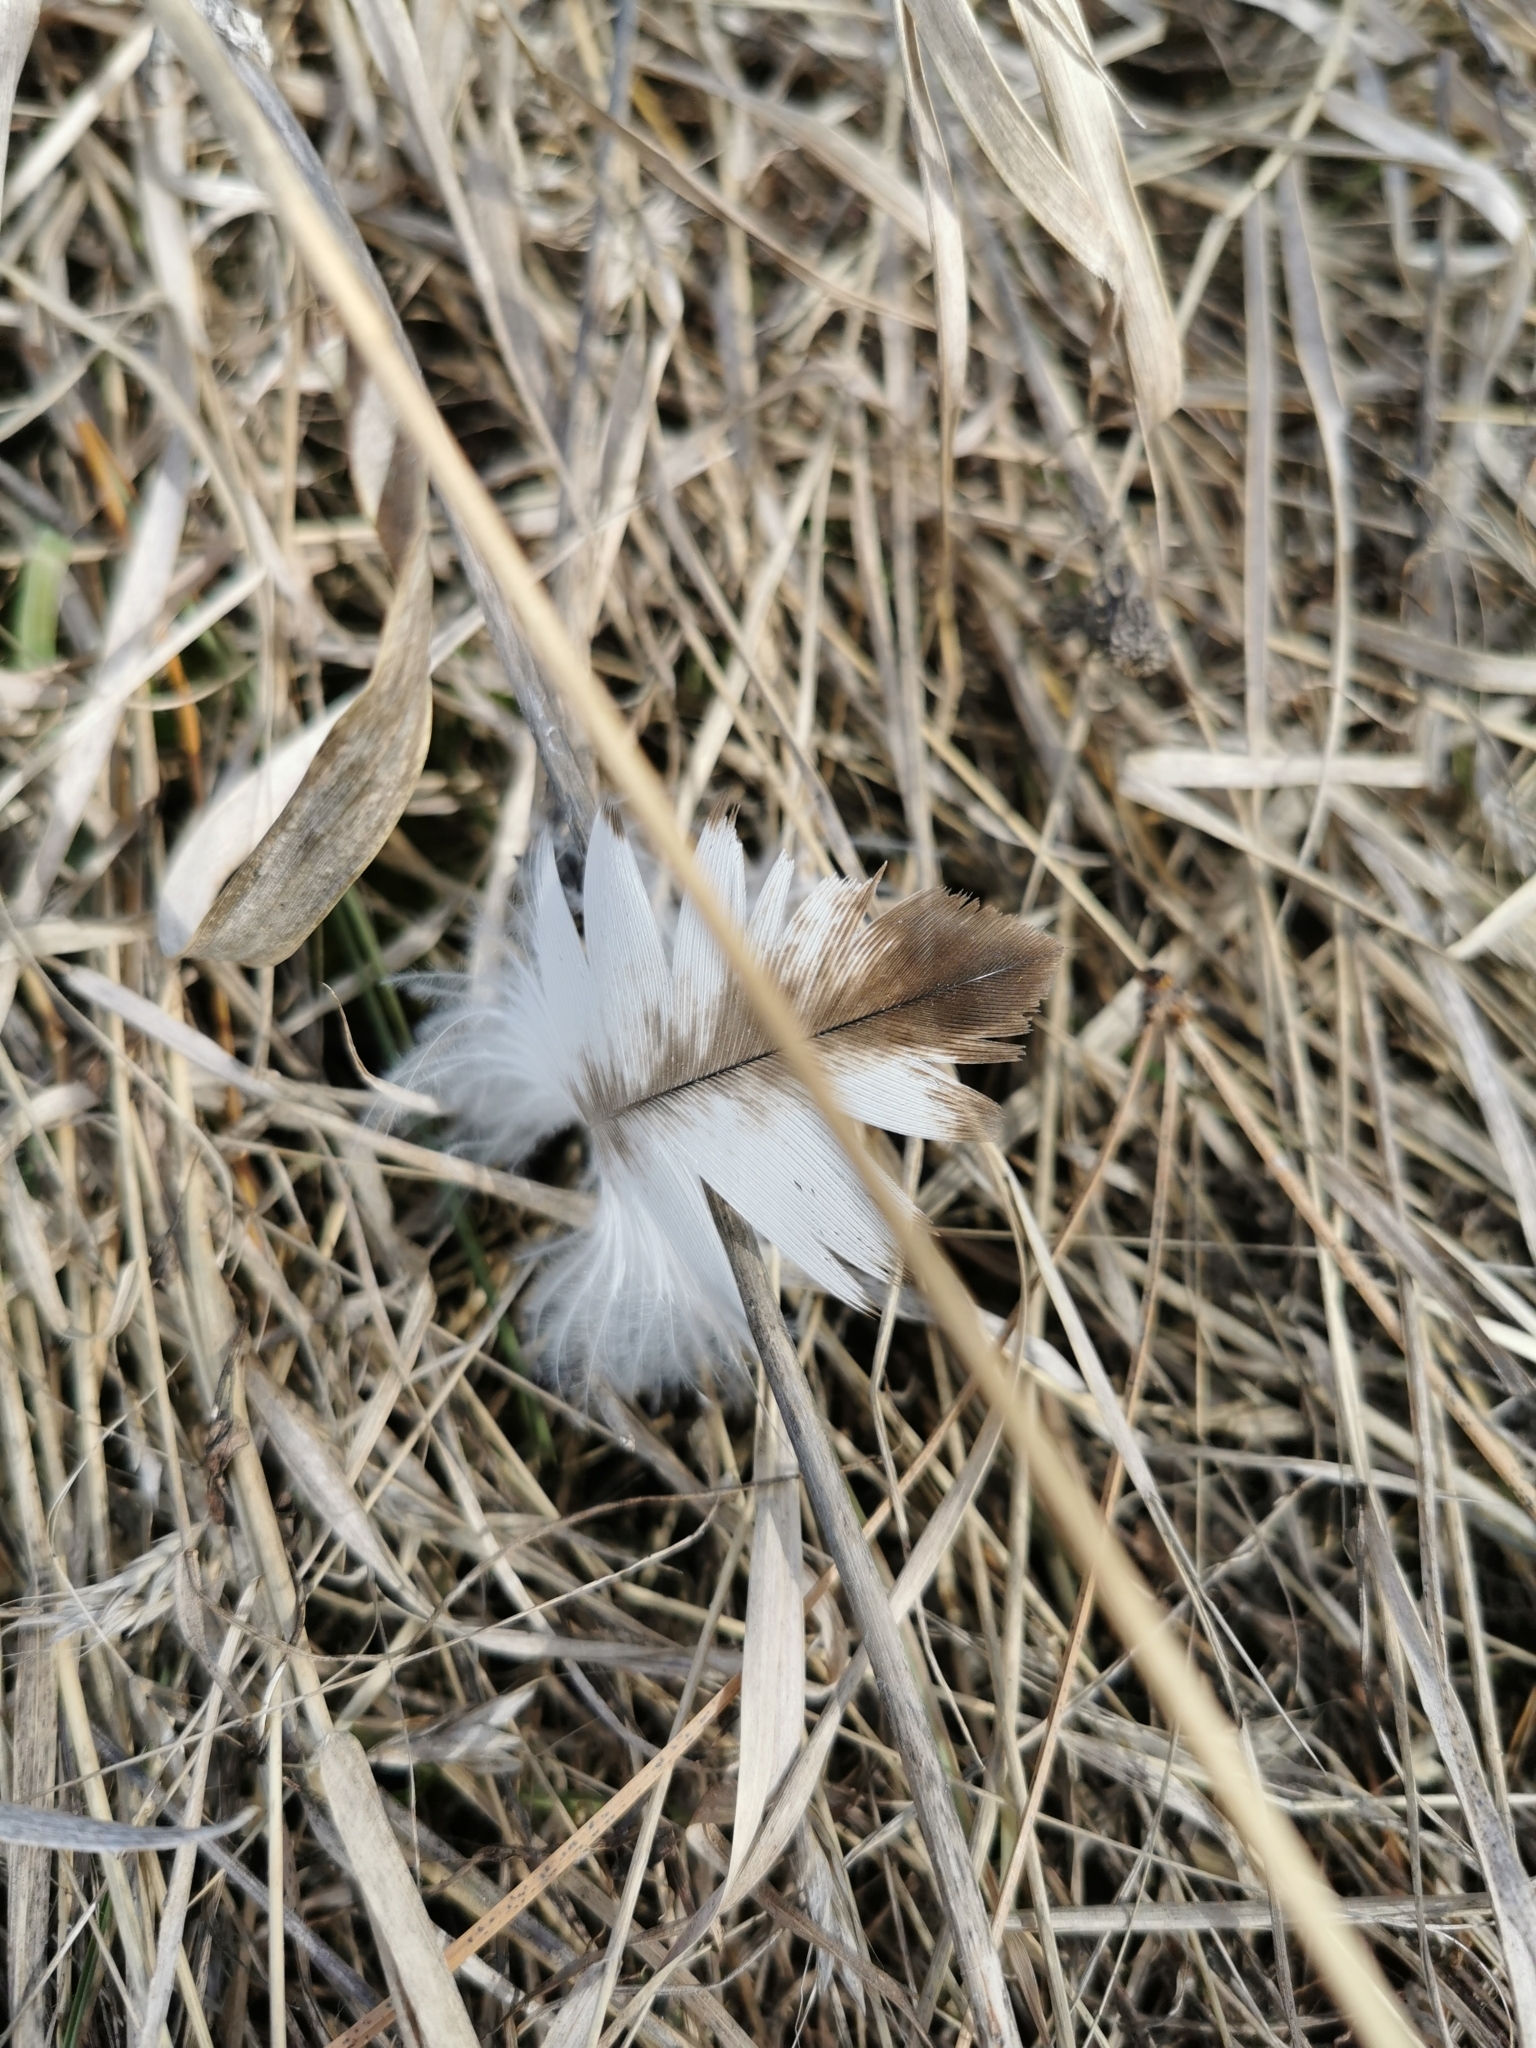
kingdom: Animalia
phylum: Chordata
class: Aves
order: Accipitriformes
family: Accipitridae
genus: Haliaeetus
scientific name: Haliaeetus leucocephalus
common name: Bald eagle
